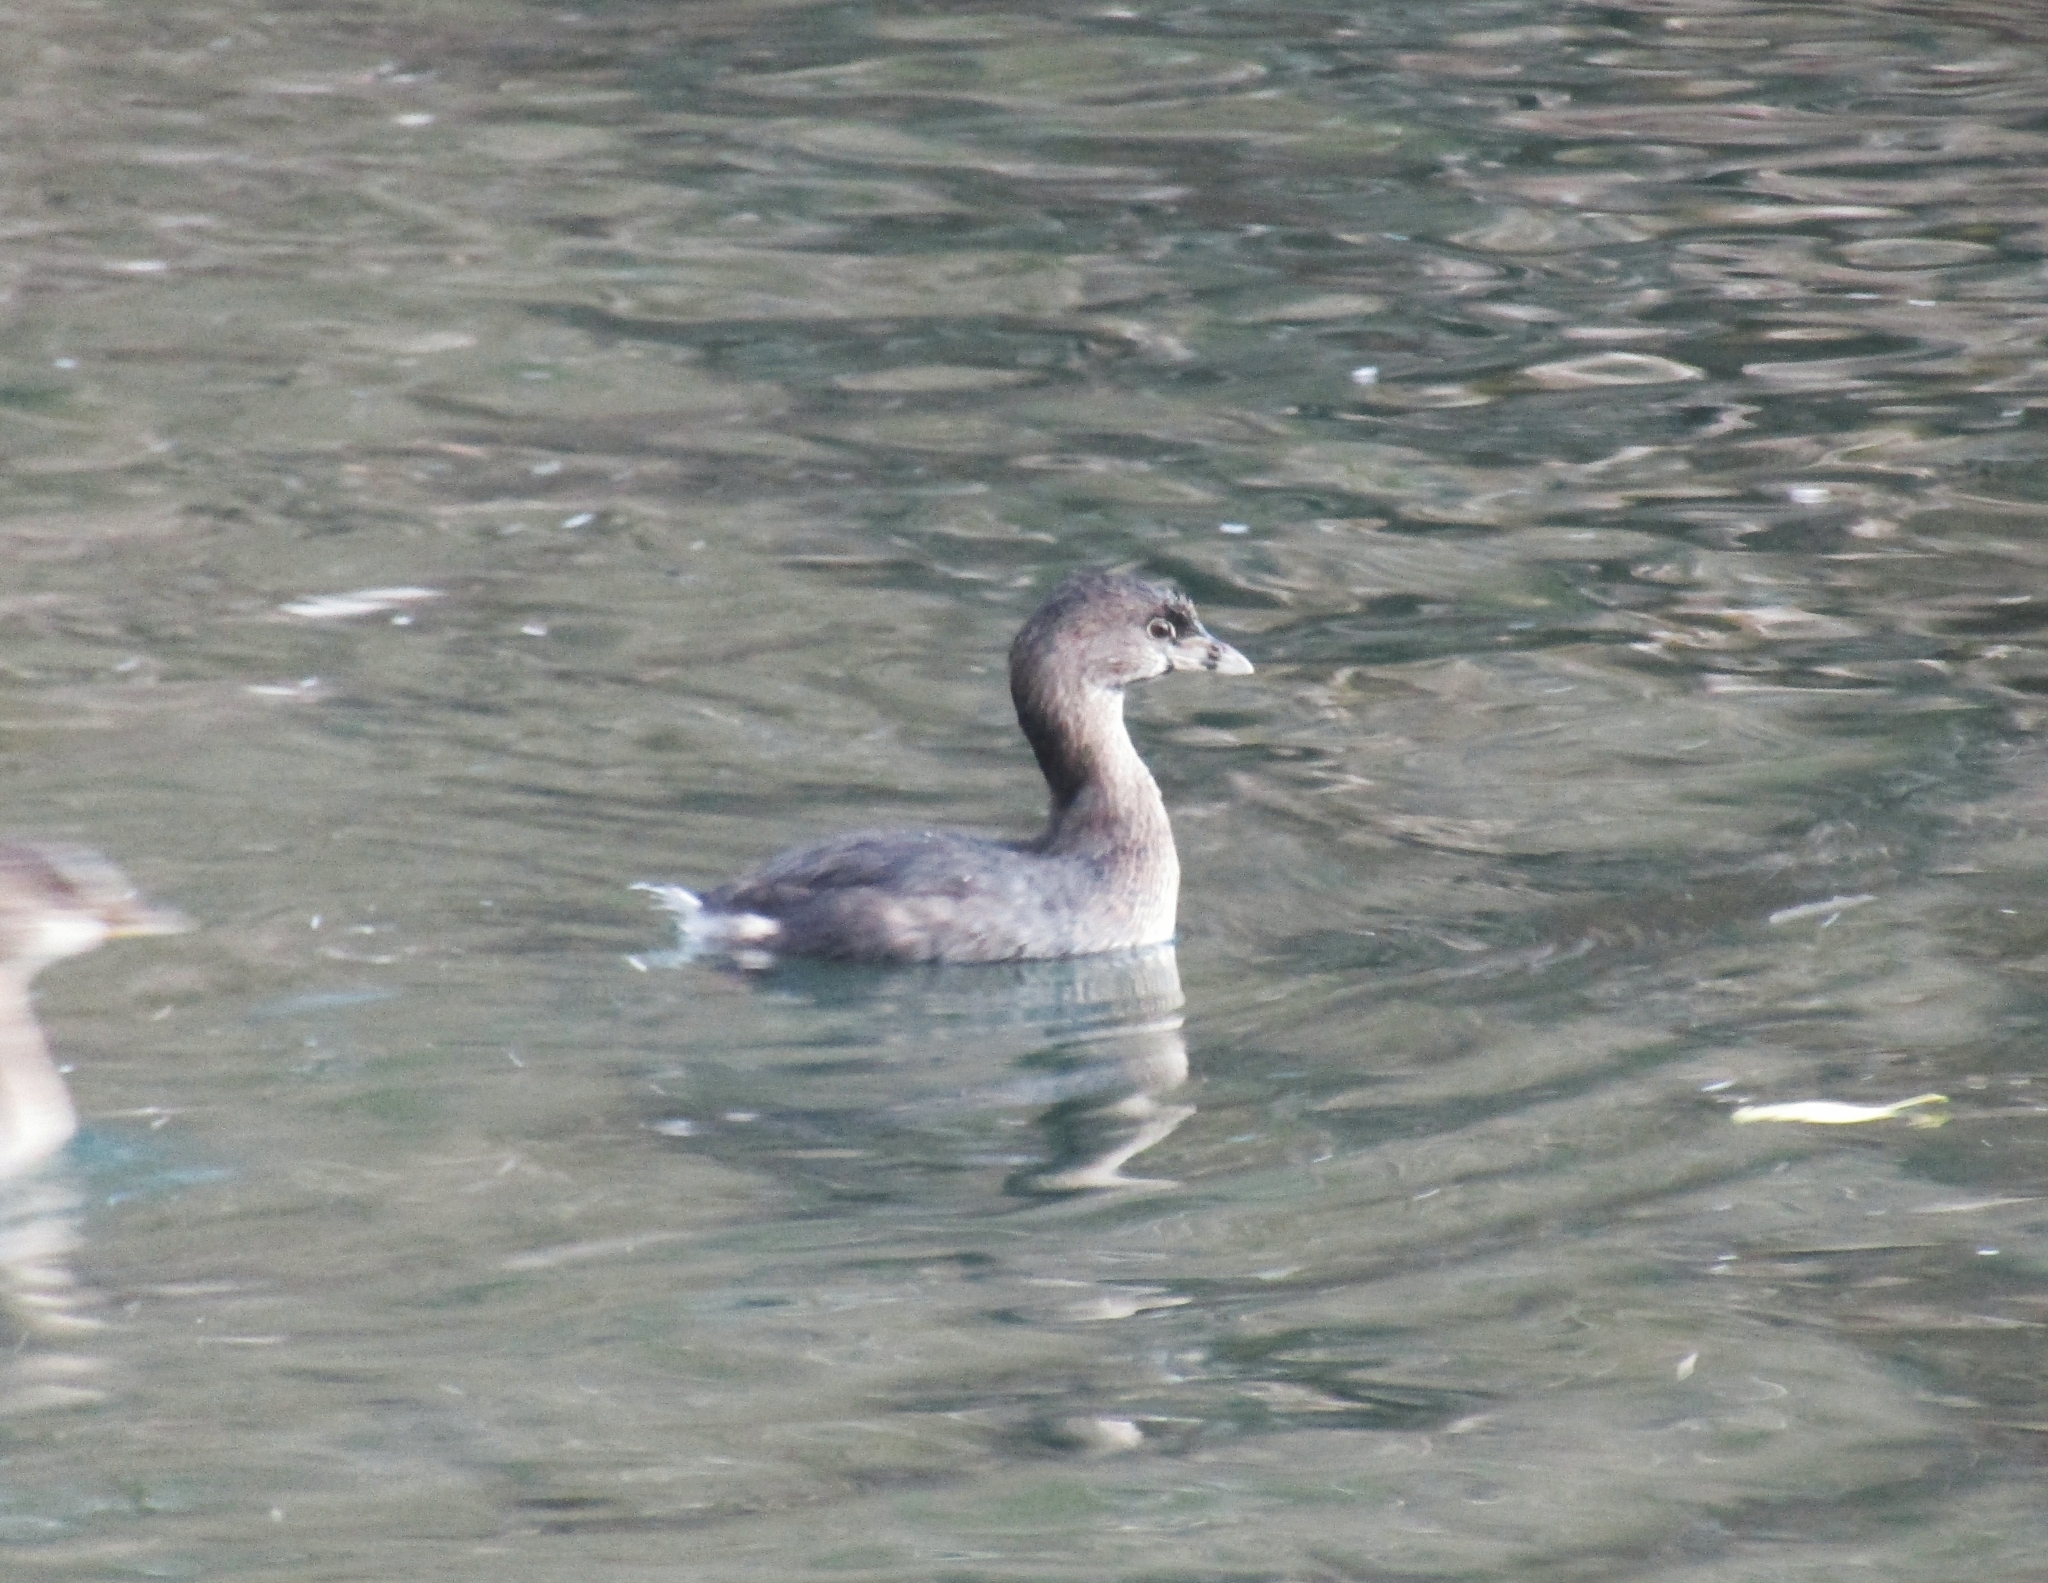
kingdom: Animalia
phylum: Chordata
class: Aves
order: Podicipediformes
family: Podicipedidae
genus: Podilymbus
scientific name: Podilymbus podiceps
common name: Pied-billed grebe
